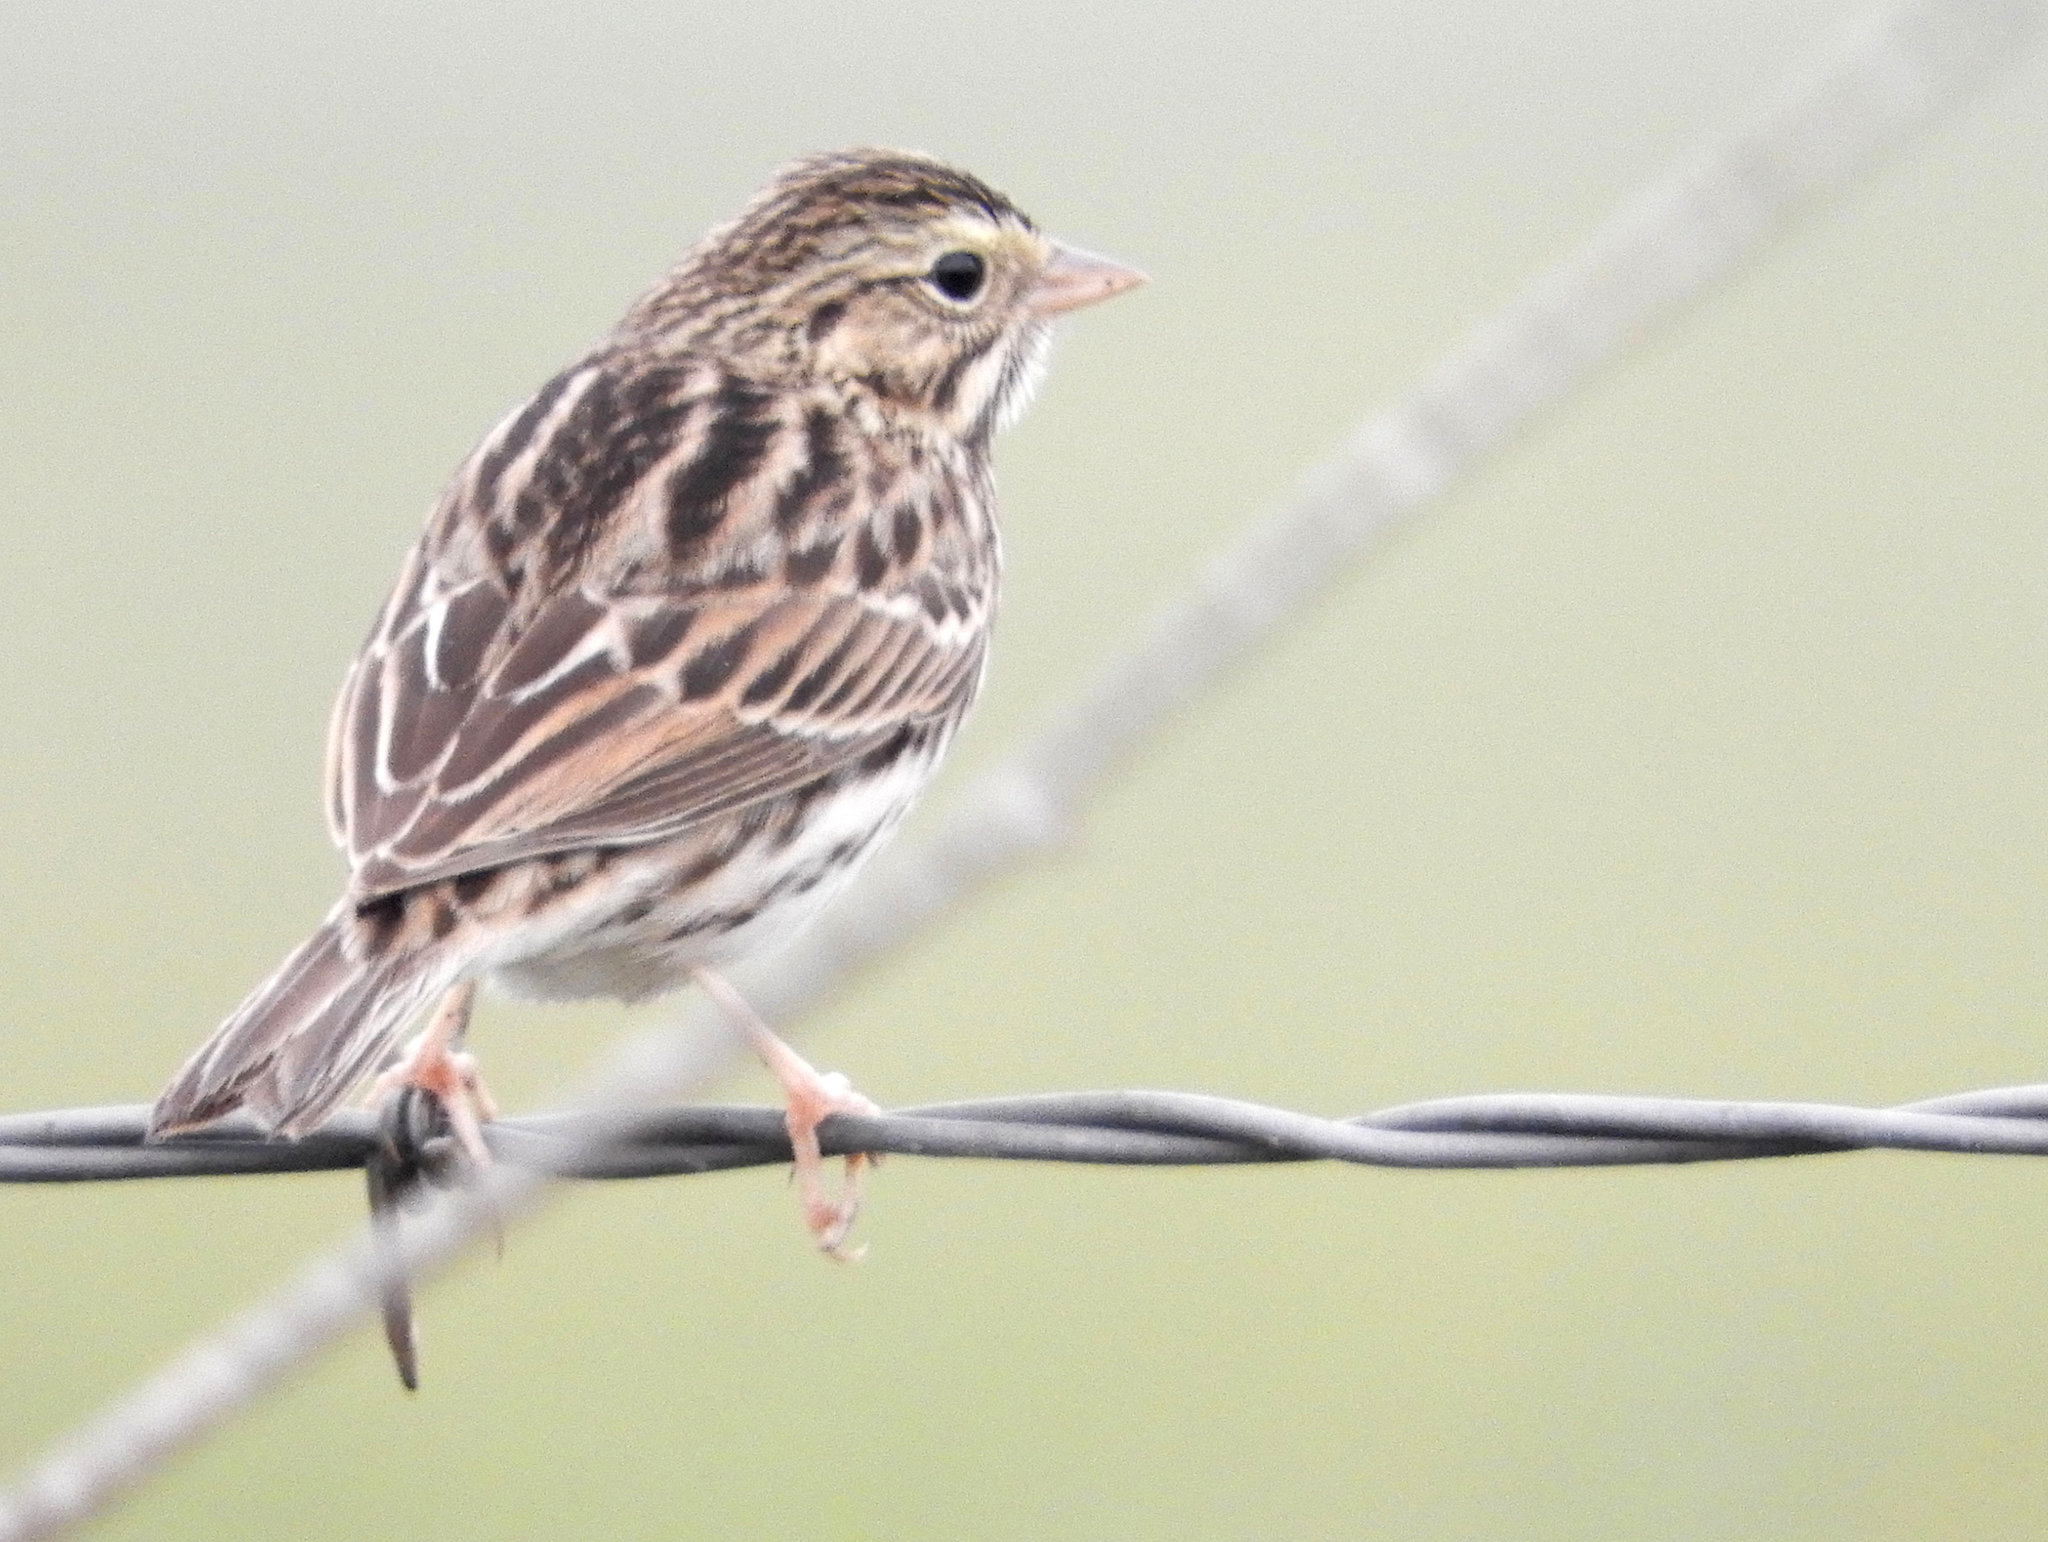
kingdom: Animalia
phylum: Chordata
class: Aves
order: Passeriformes
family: Passerellidae
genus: Passerculus
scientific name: Passerculus sandwichensis
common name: Savannah sparrow
